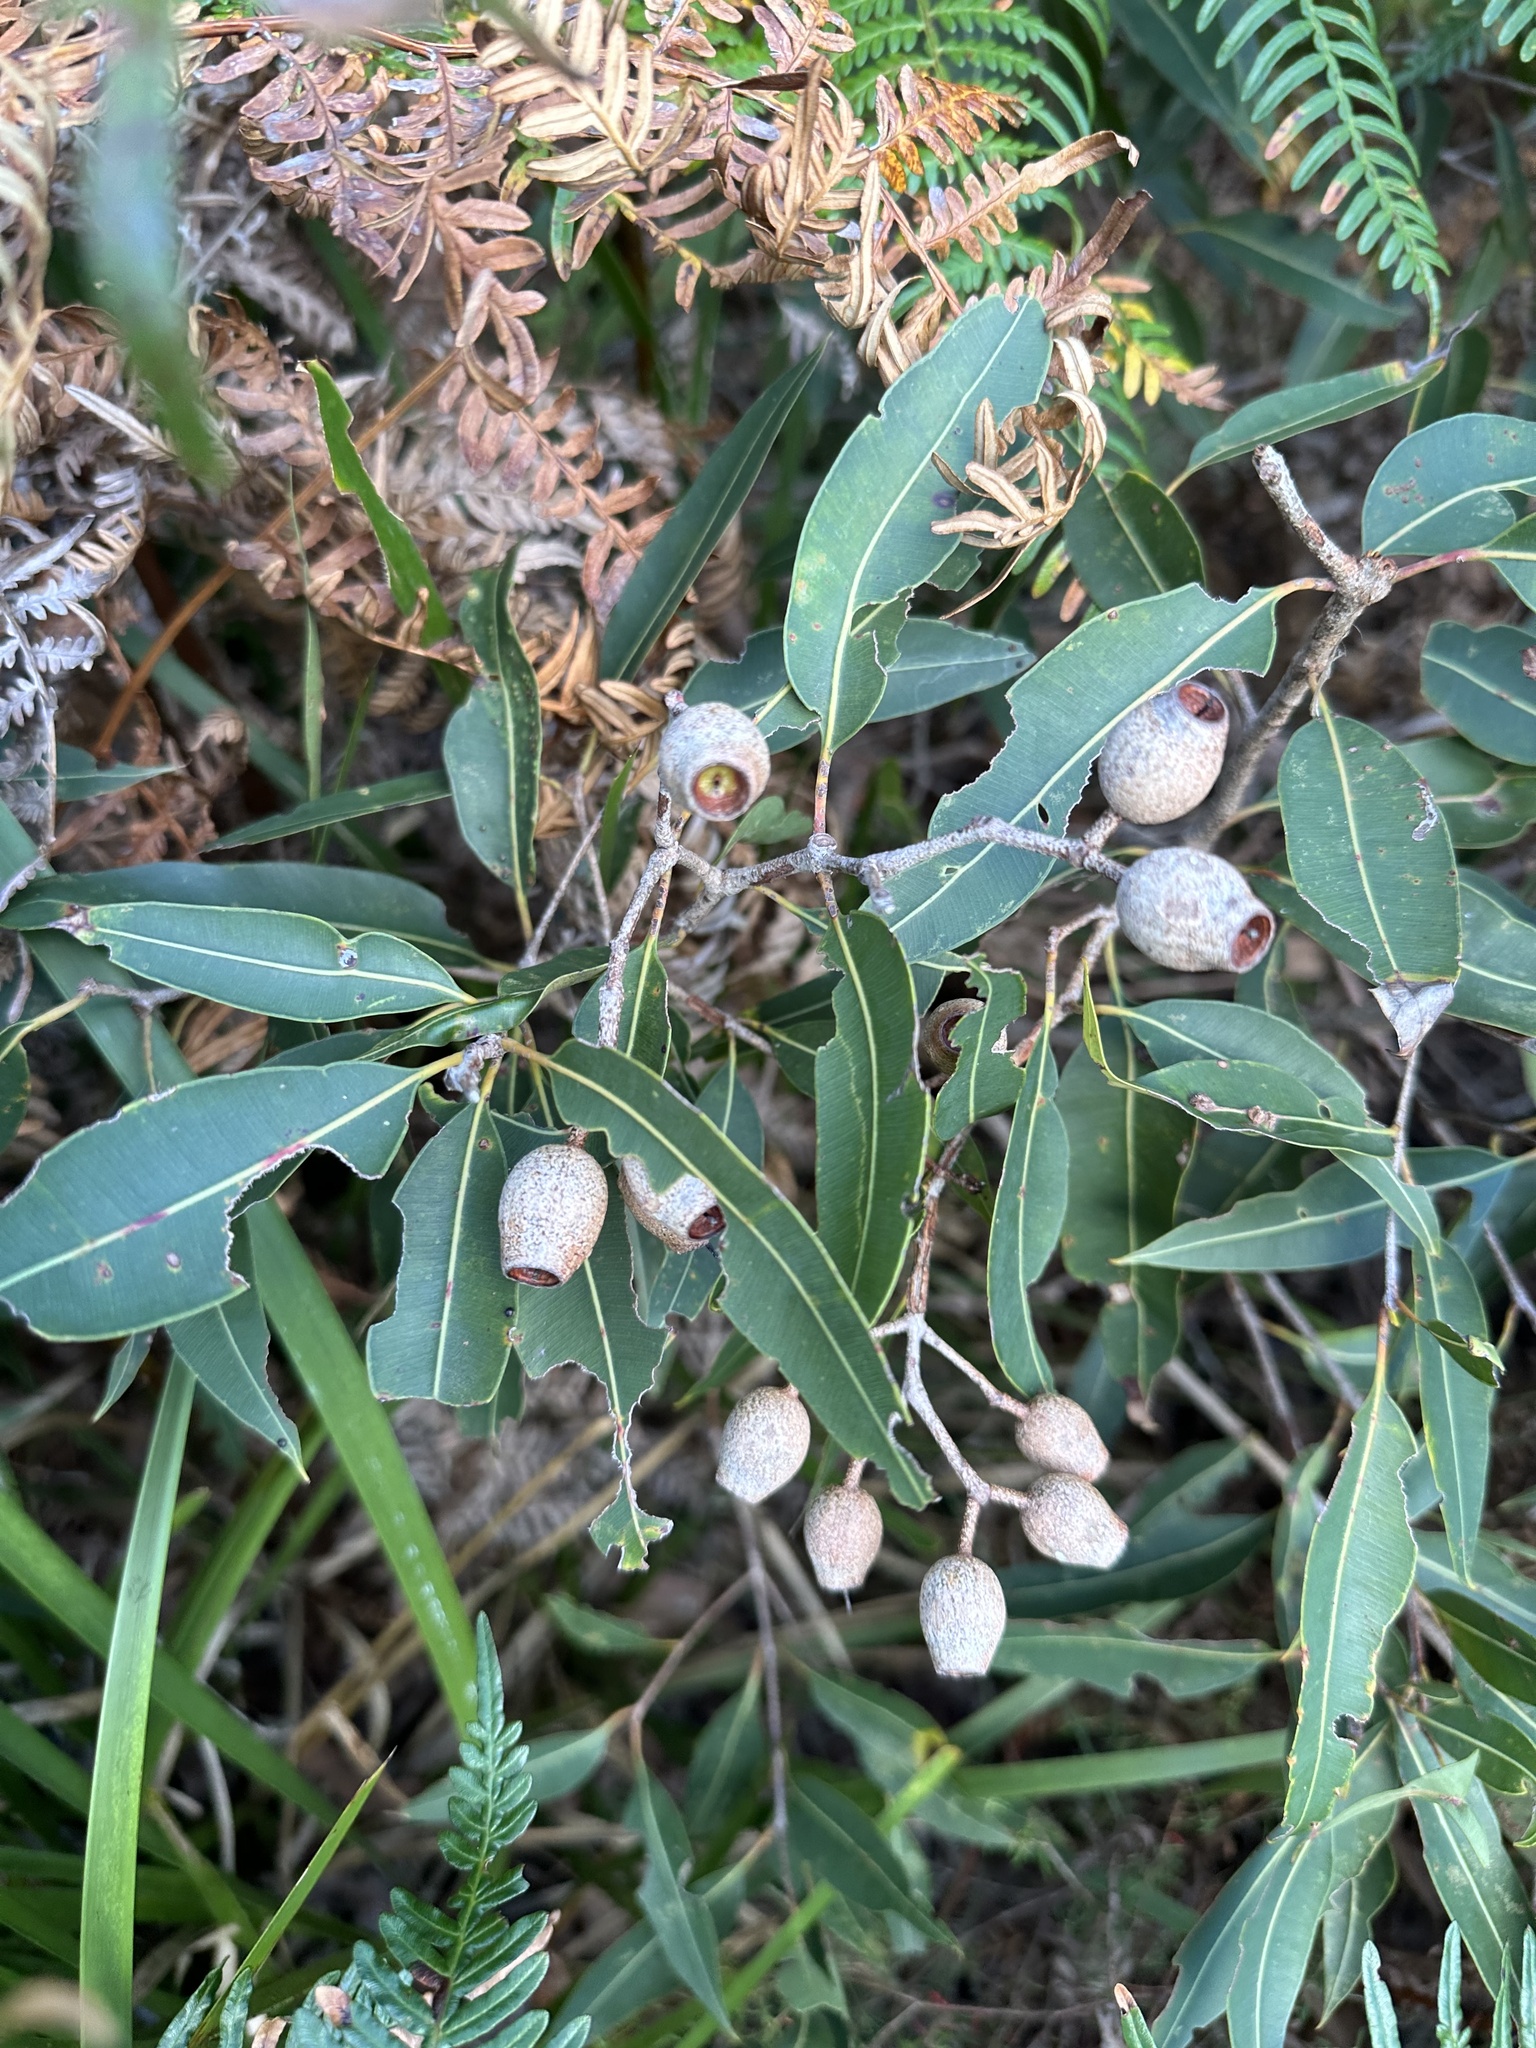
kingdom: Plantae
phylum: Tracheophyta
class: Magnoliopsida
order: Myrtales
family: Myrtaceae
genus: Corymbia
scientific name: Corymbia intermedia
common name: Pink-bloodwood
